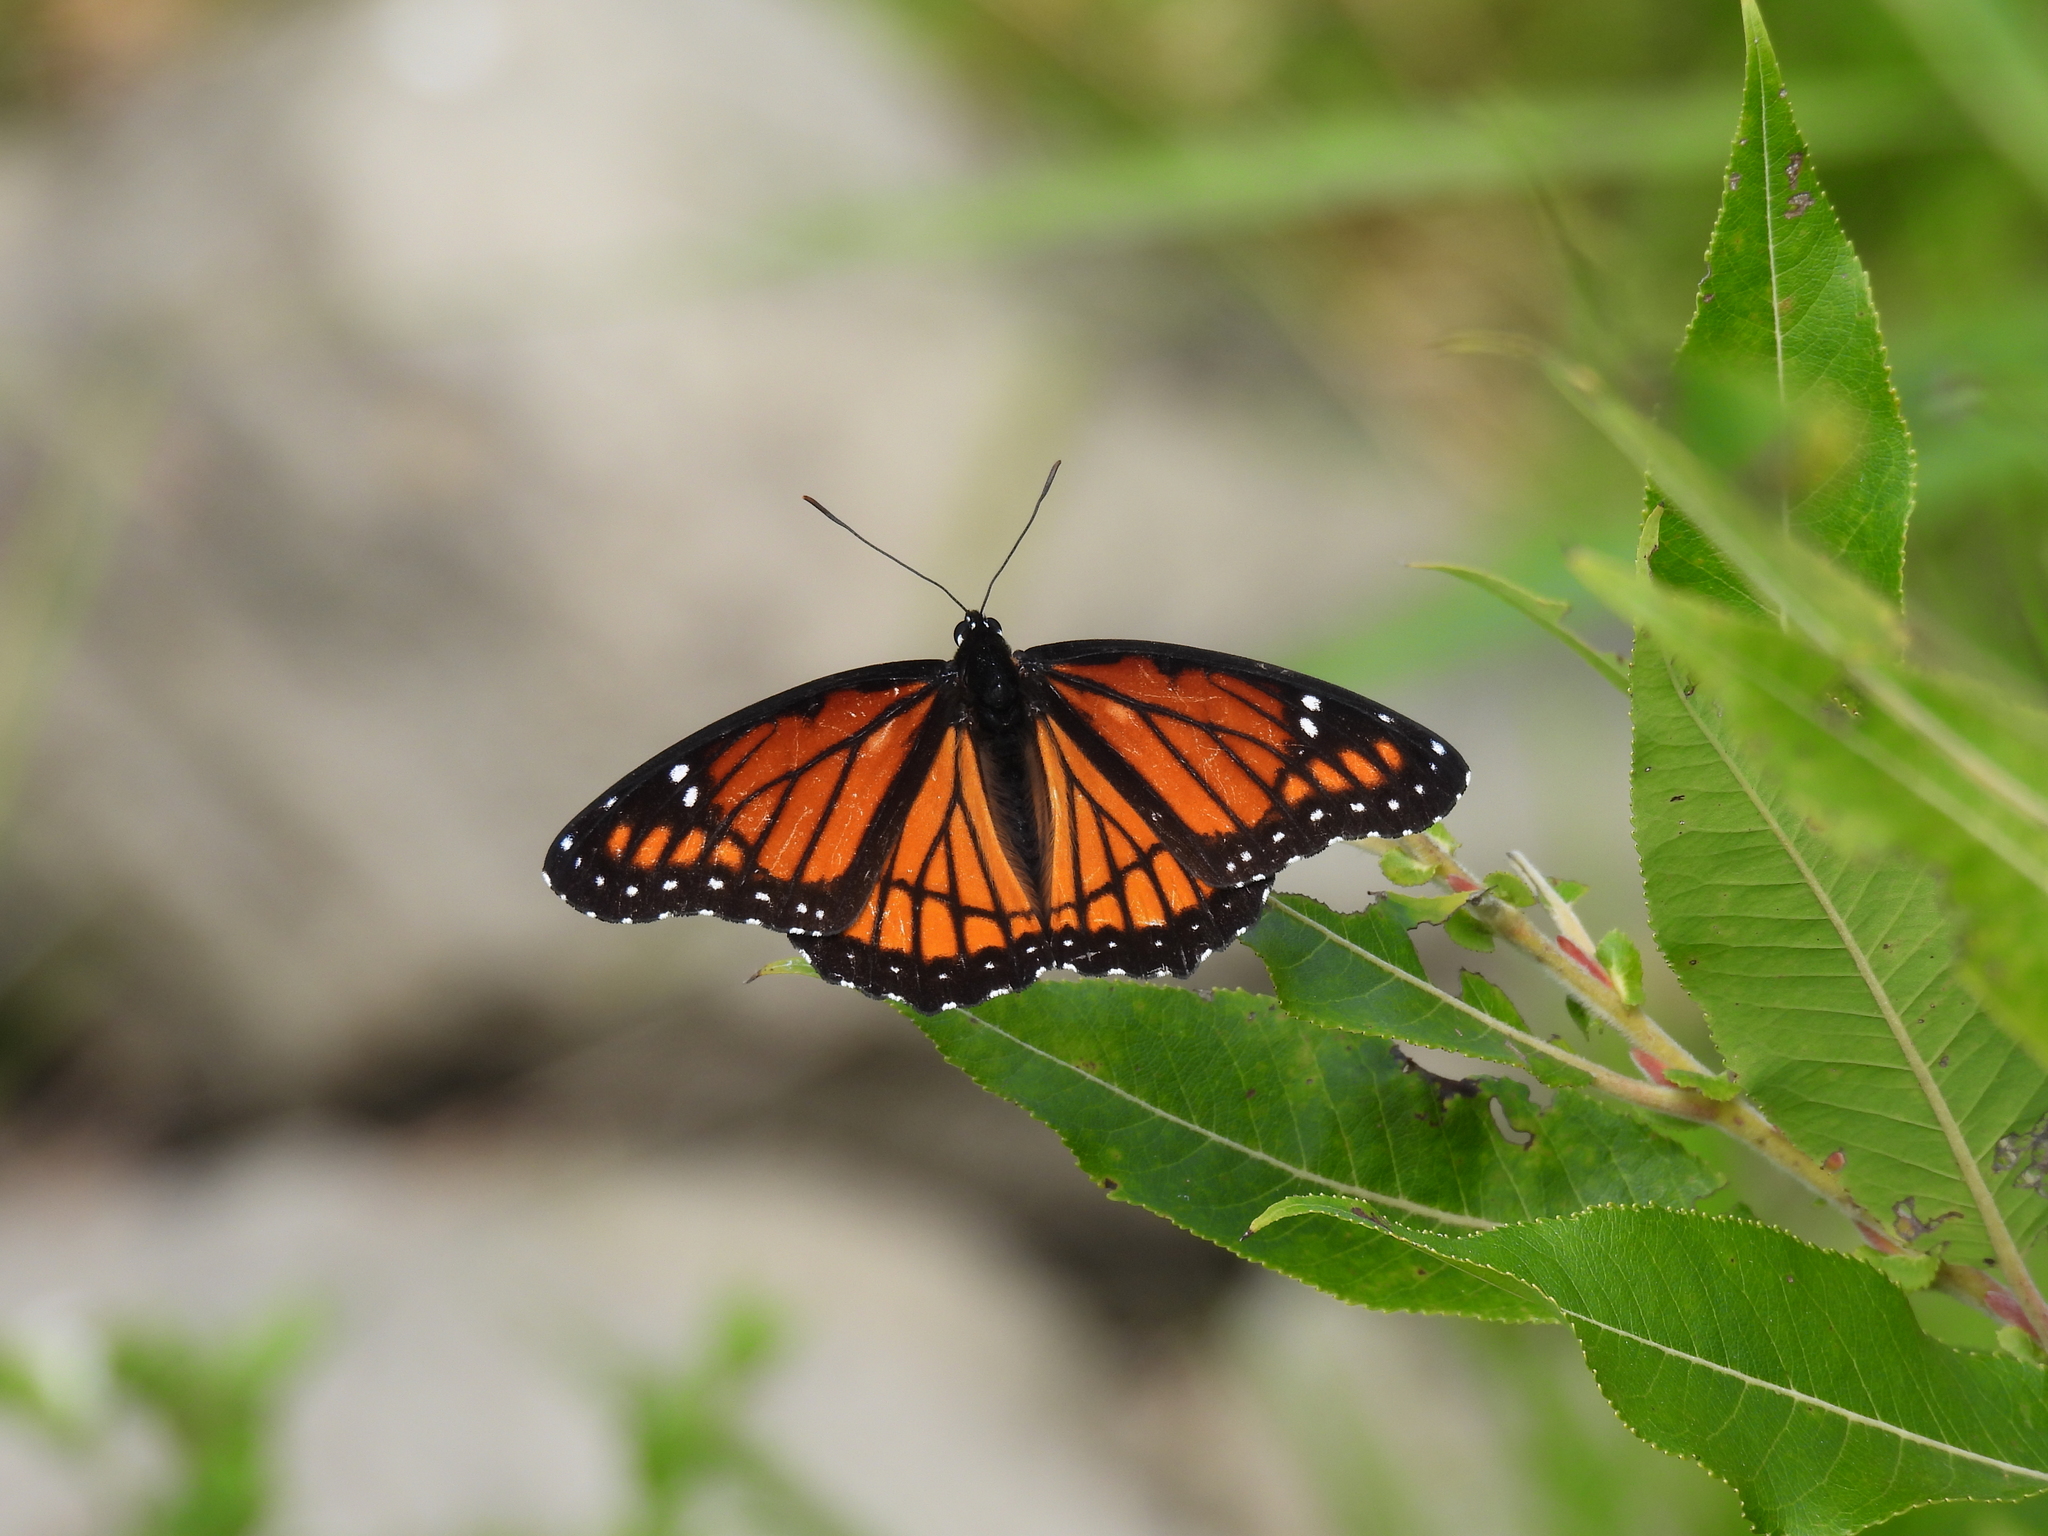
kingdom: Animalia
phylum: Arthropoda
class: Insecta
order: Lepidoptera
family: Nymphalidae
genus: Limenitis
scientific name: Limenitis archippus
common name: Viceroy
